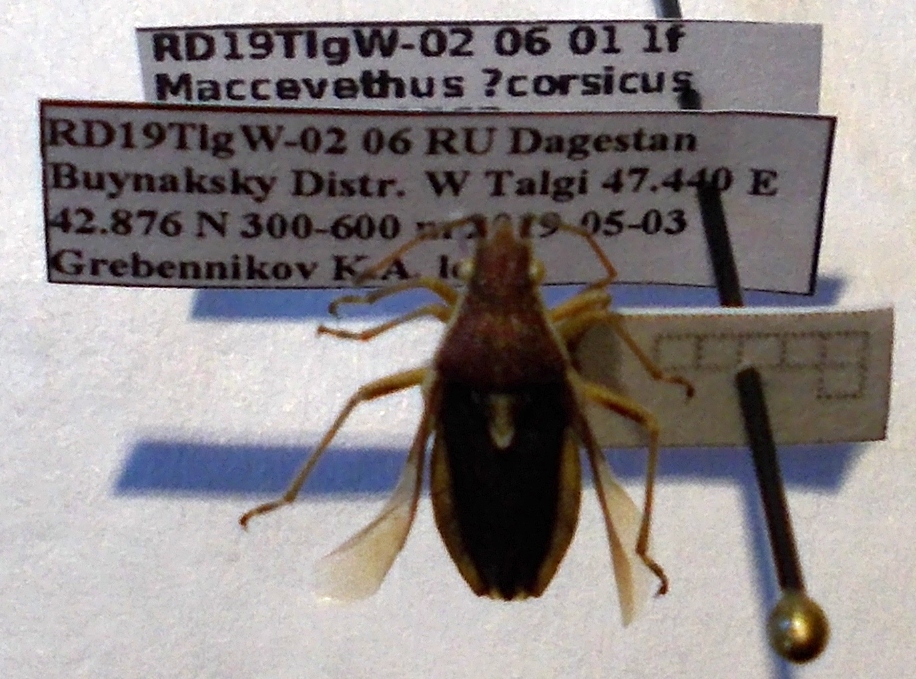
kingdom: Animalia
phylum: Arthropoda
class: Insecta
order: Hemiptera
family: Rhopalidae
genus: Maccevethus
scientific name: Maccevethus corsicus
